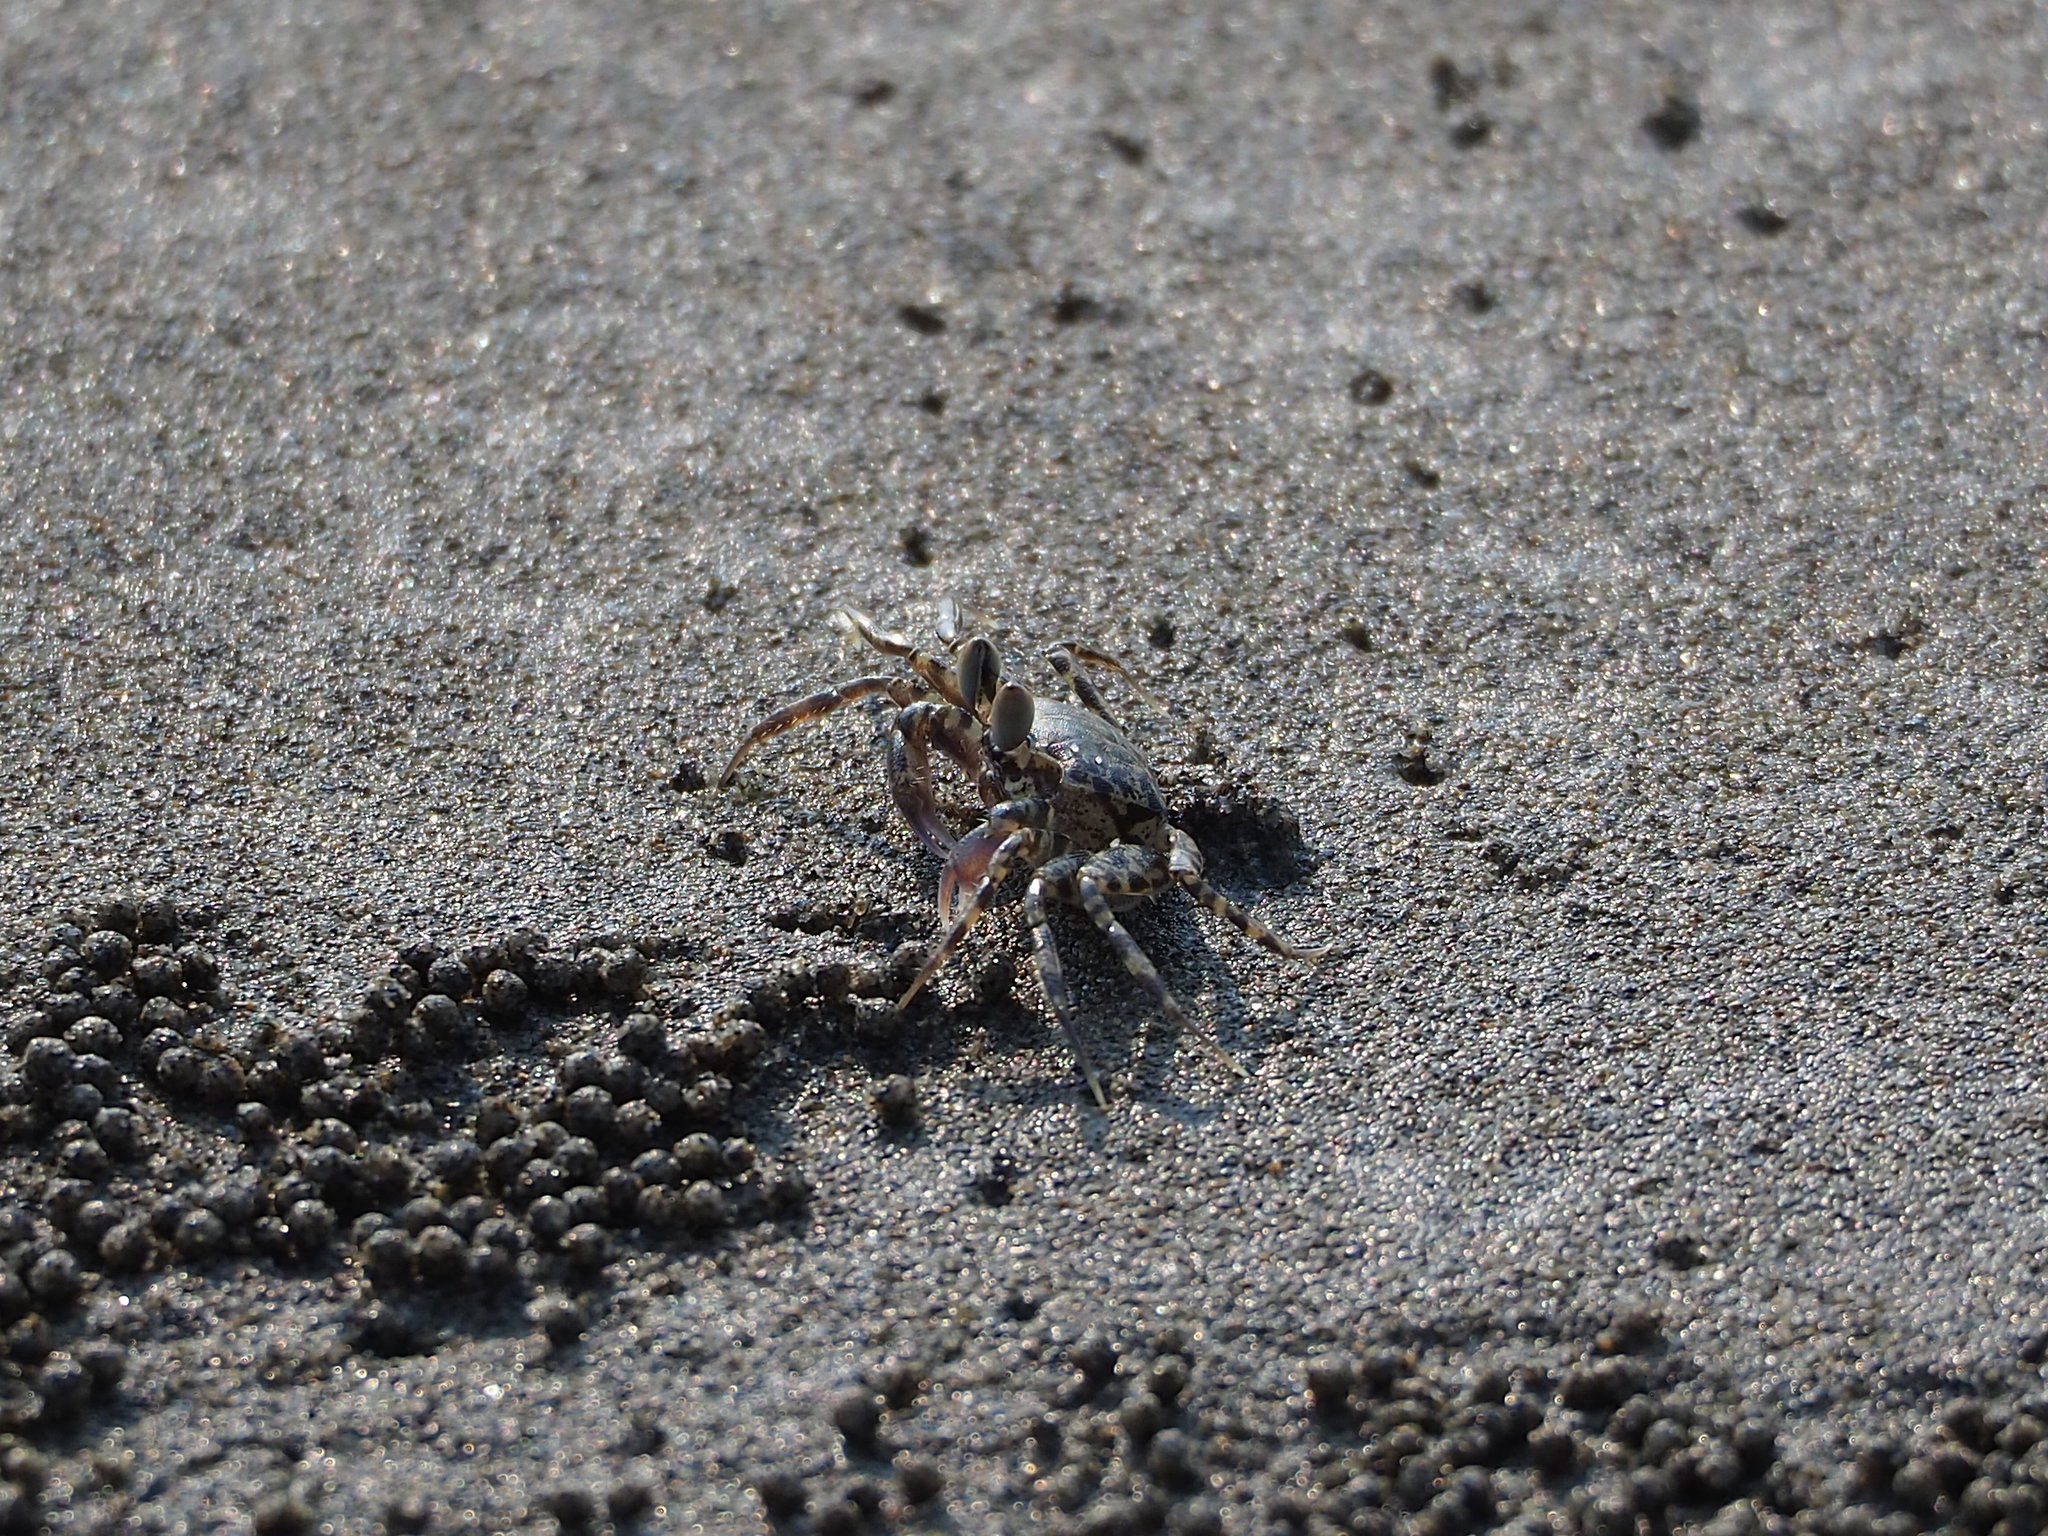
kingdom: Animalia
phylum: Arthropoda
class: Malacostraca
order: Decapoda
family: Ocypodidae
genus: Ocypode
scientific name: Ocypode ceratophthalmus
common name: Indo-pacific ghost crab
